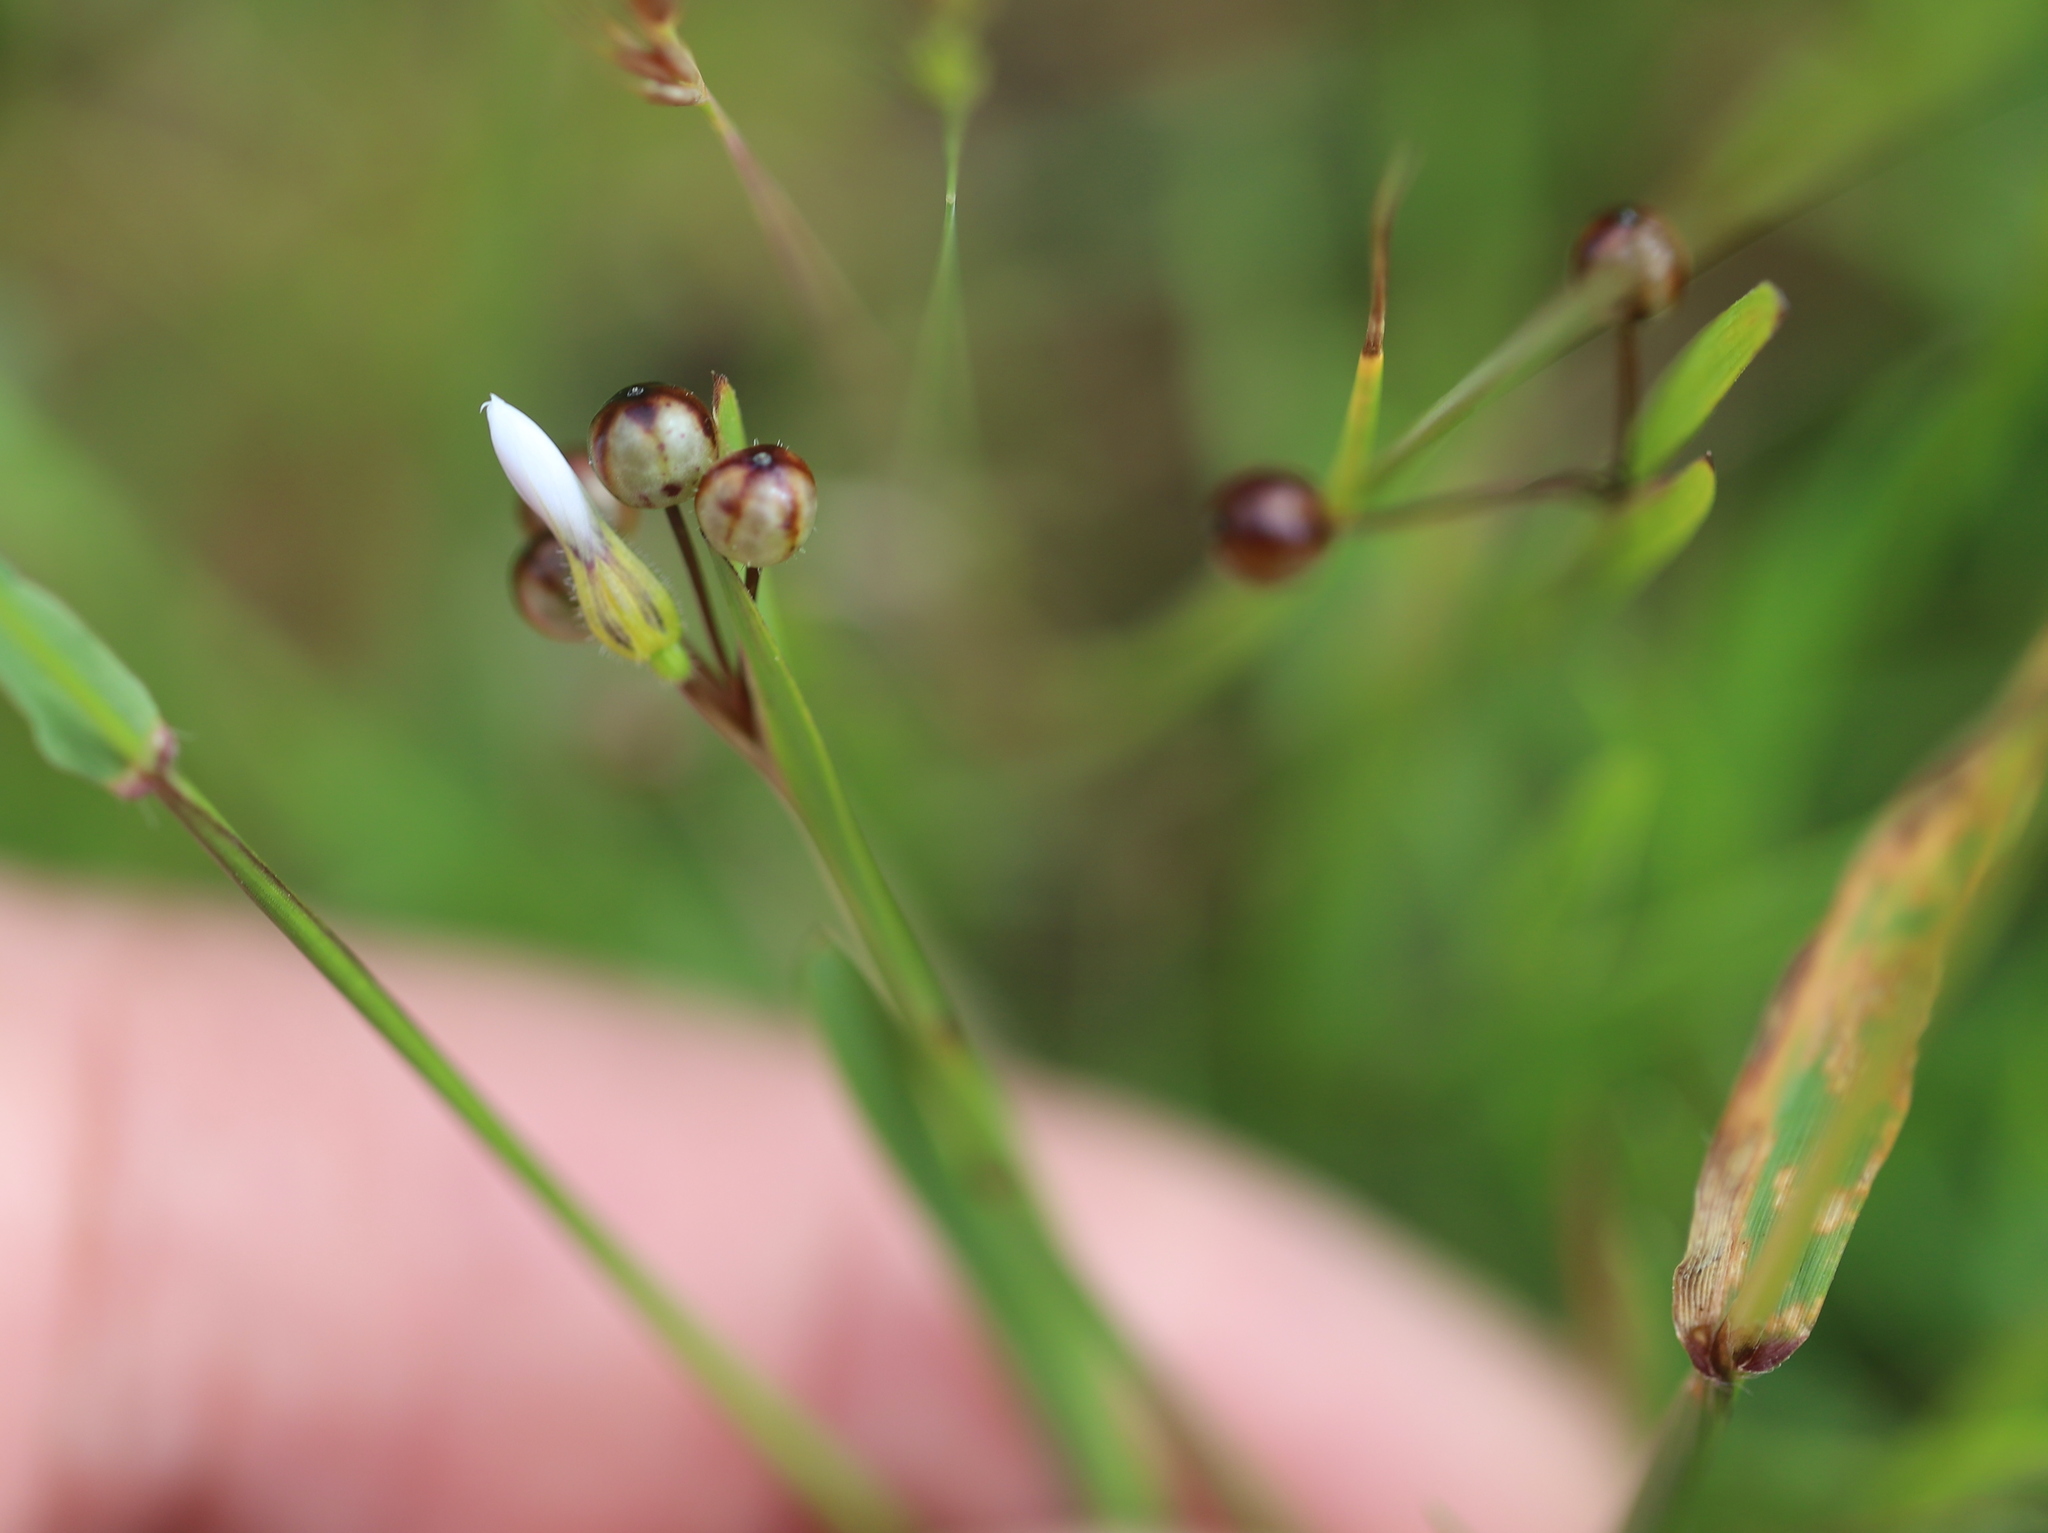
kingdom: Plantae
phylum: Tracheophyta
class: Liliopsida
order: Asparagales
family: Iridaceae
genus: Sisyrinchium
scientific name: Sisyrinchium micranthum
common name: Bermuda pigroot
